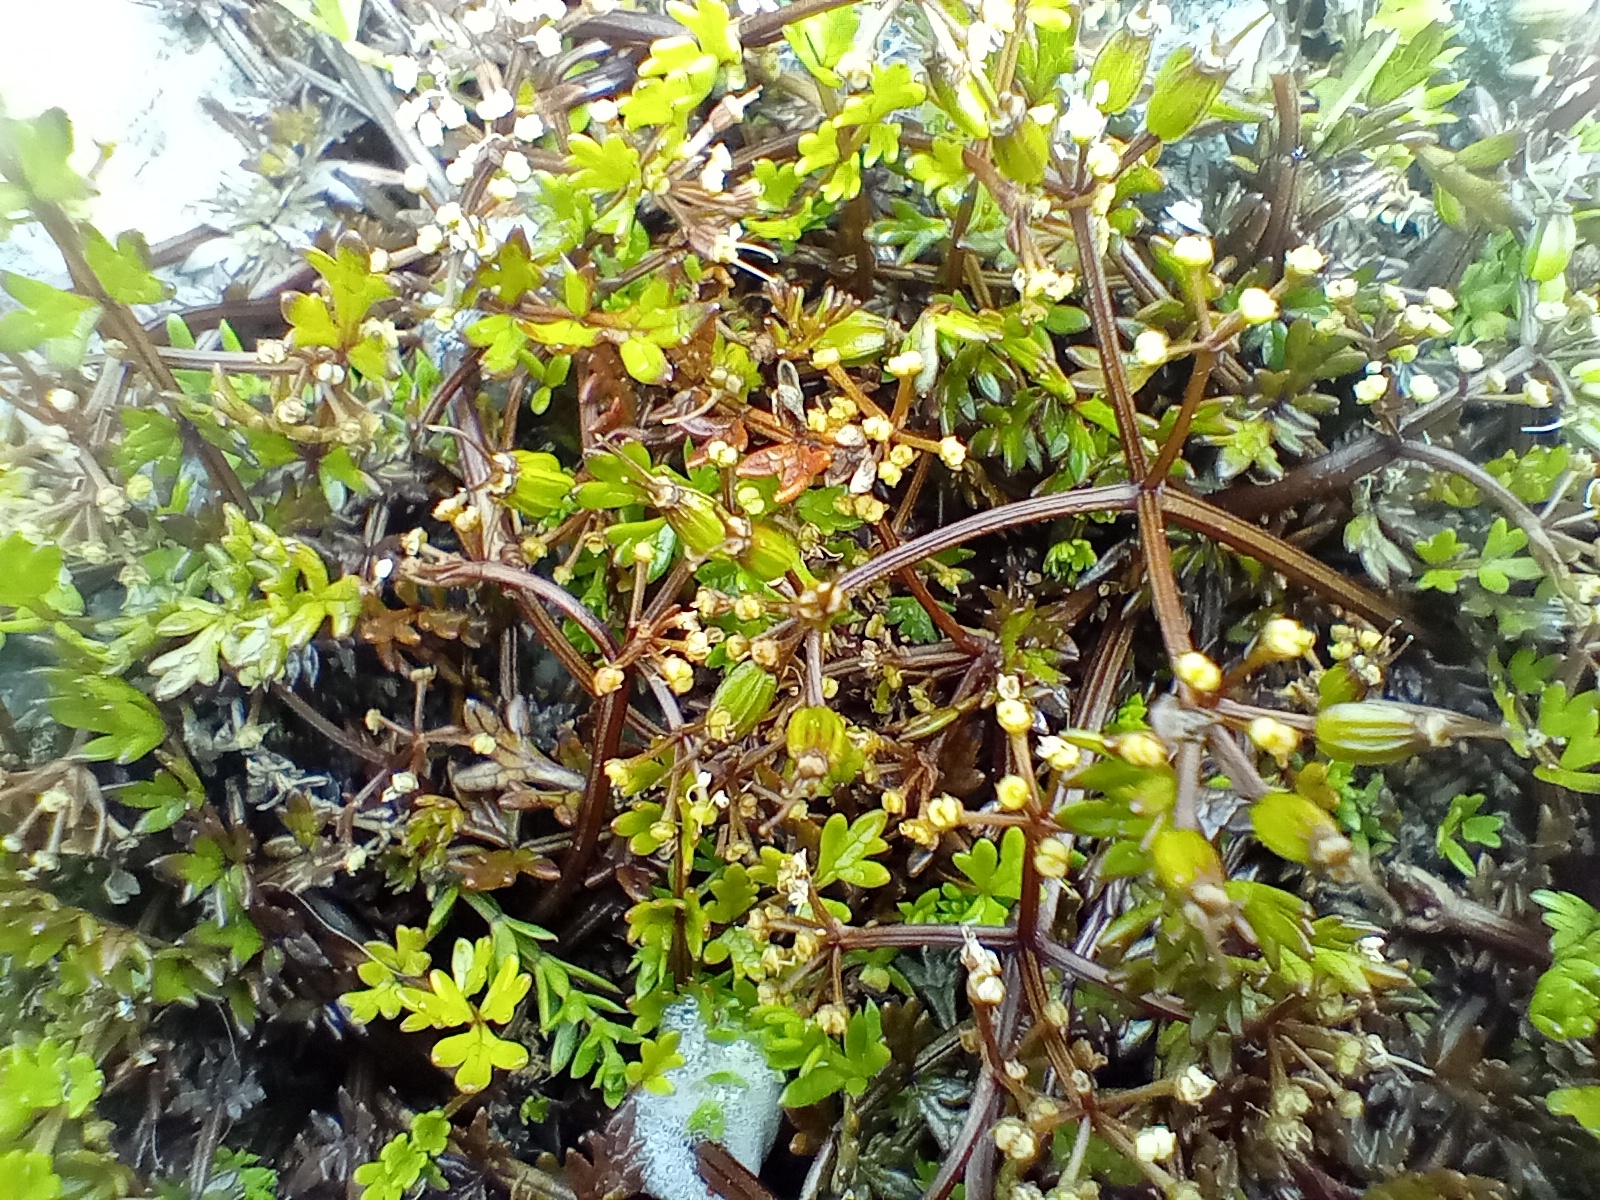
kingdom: Plantae
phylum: Tracheophyta
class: Magnoliopsida
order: Apiales
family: Apiaceae
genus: Gingidia
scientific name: Gingidia decipiens
